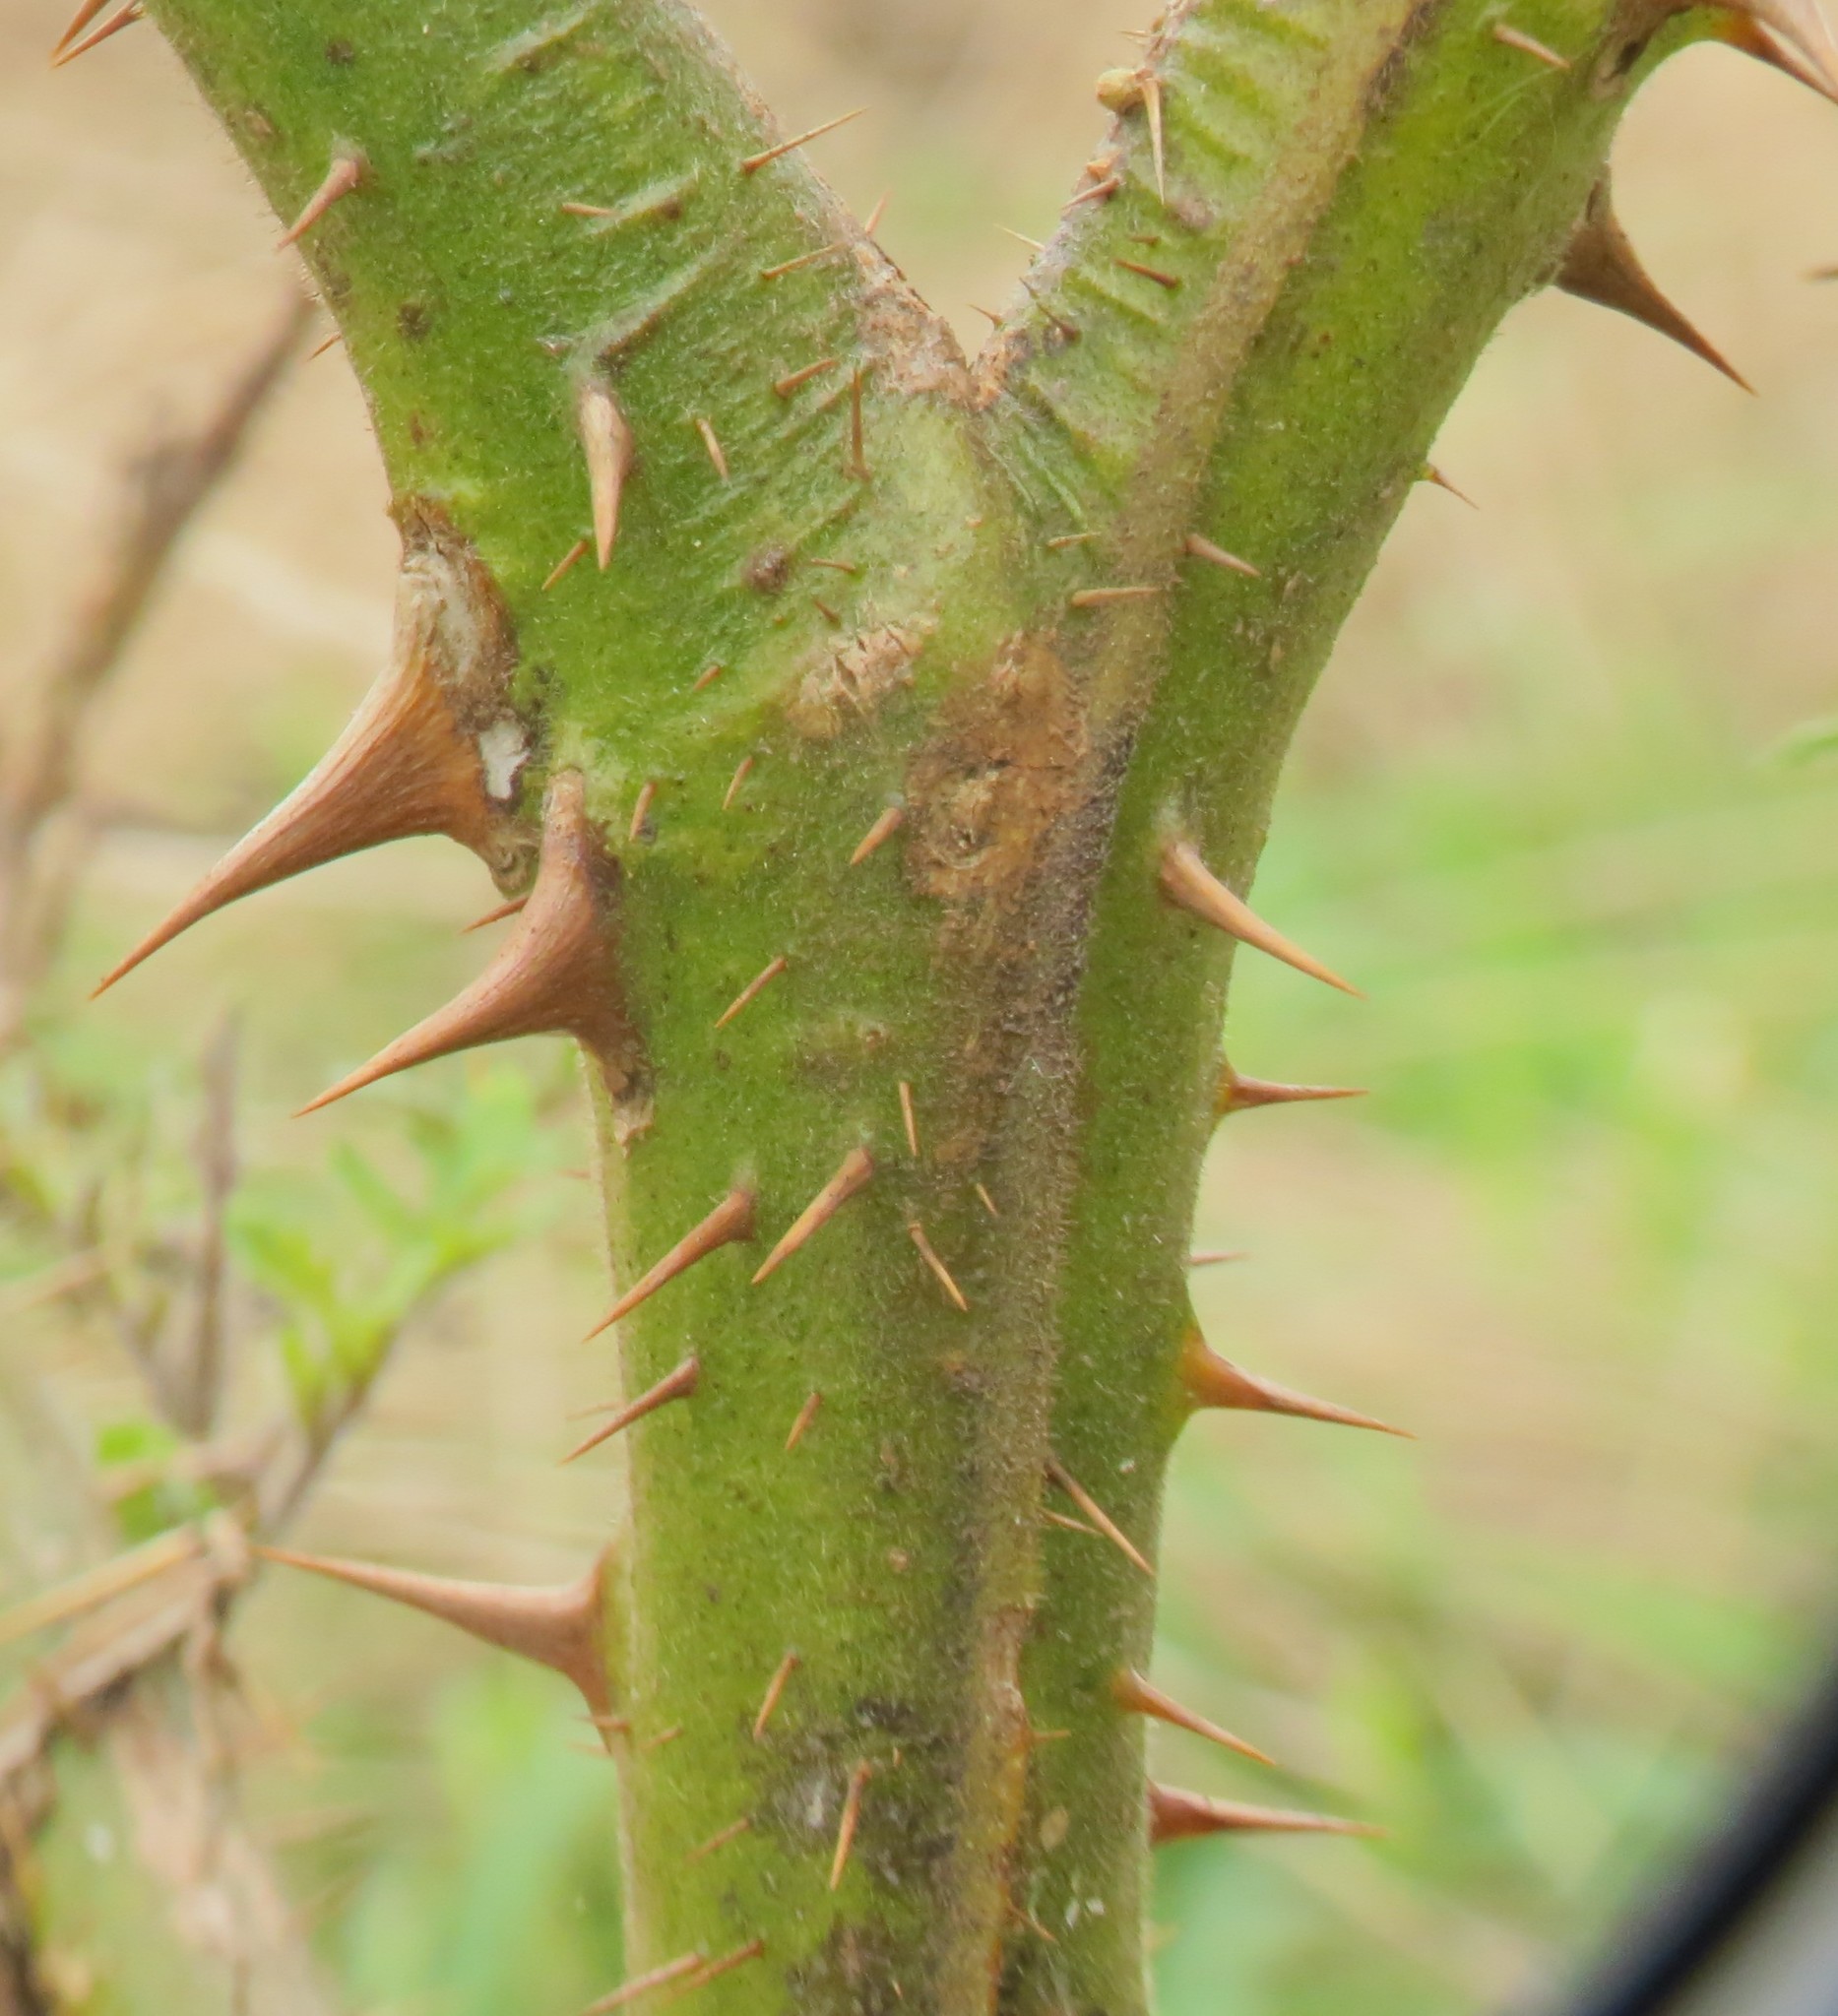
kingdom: Plantae
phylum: Tracheophyta
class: Magnoliopsida
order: Solanales
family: Solanaceae
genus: Solanum
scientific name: Solanum sisymbriifolium
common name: Red buffalo-bur
